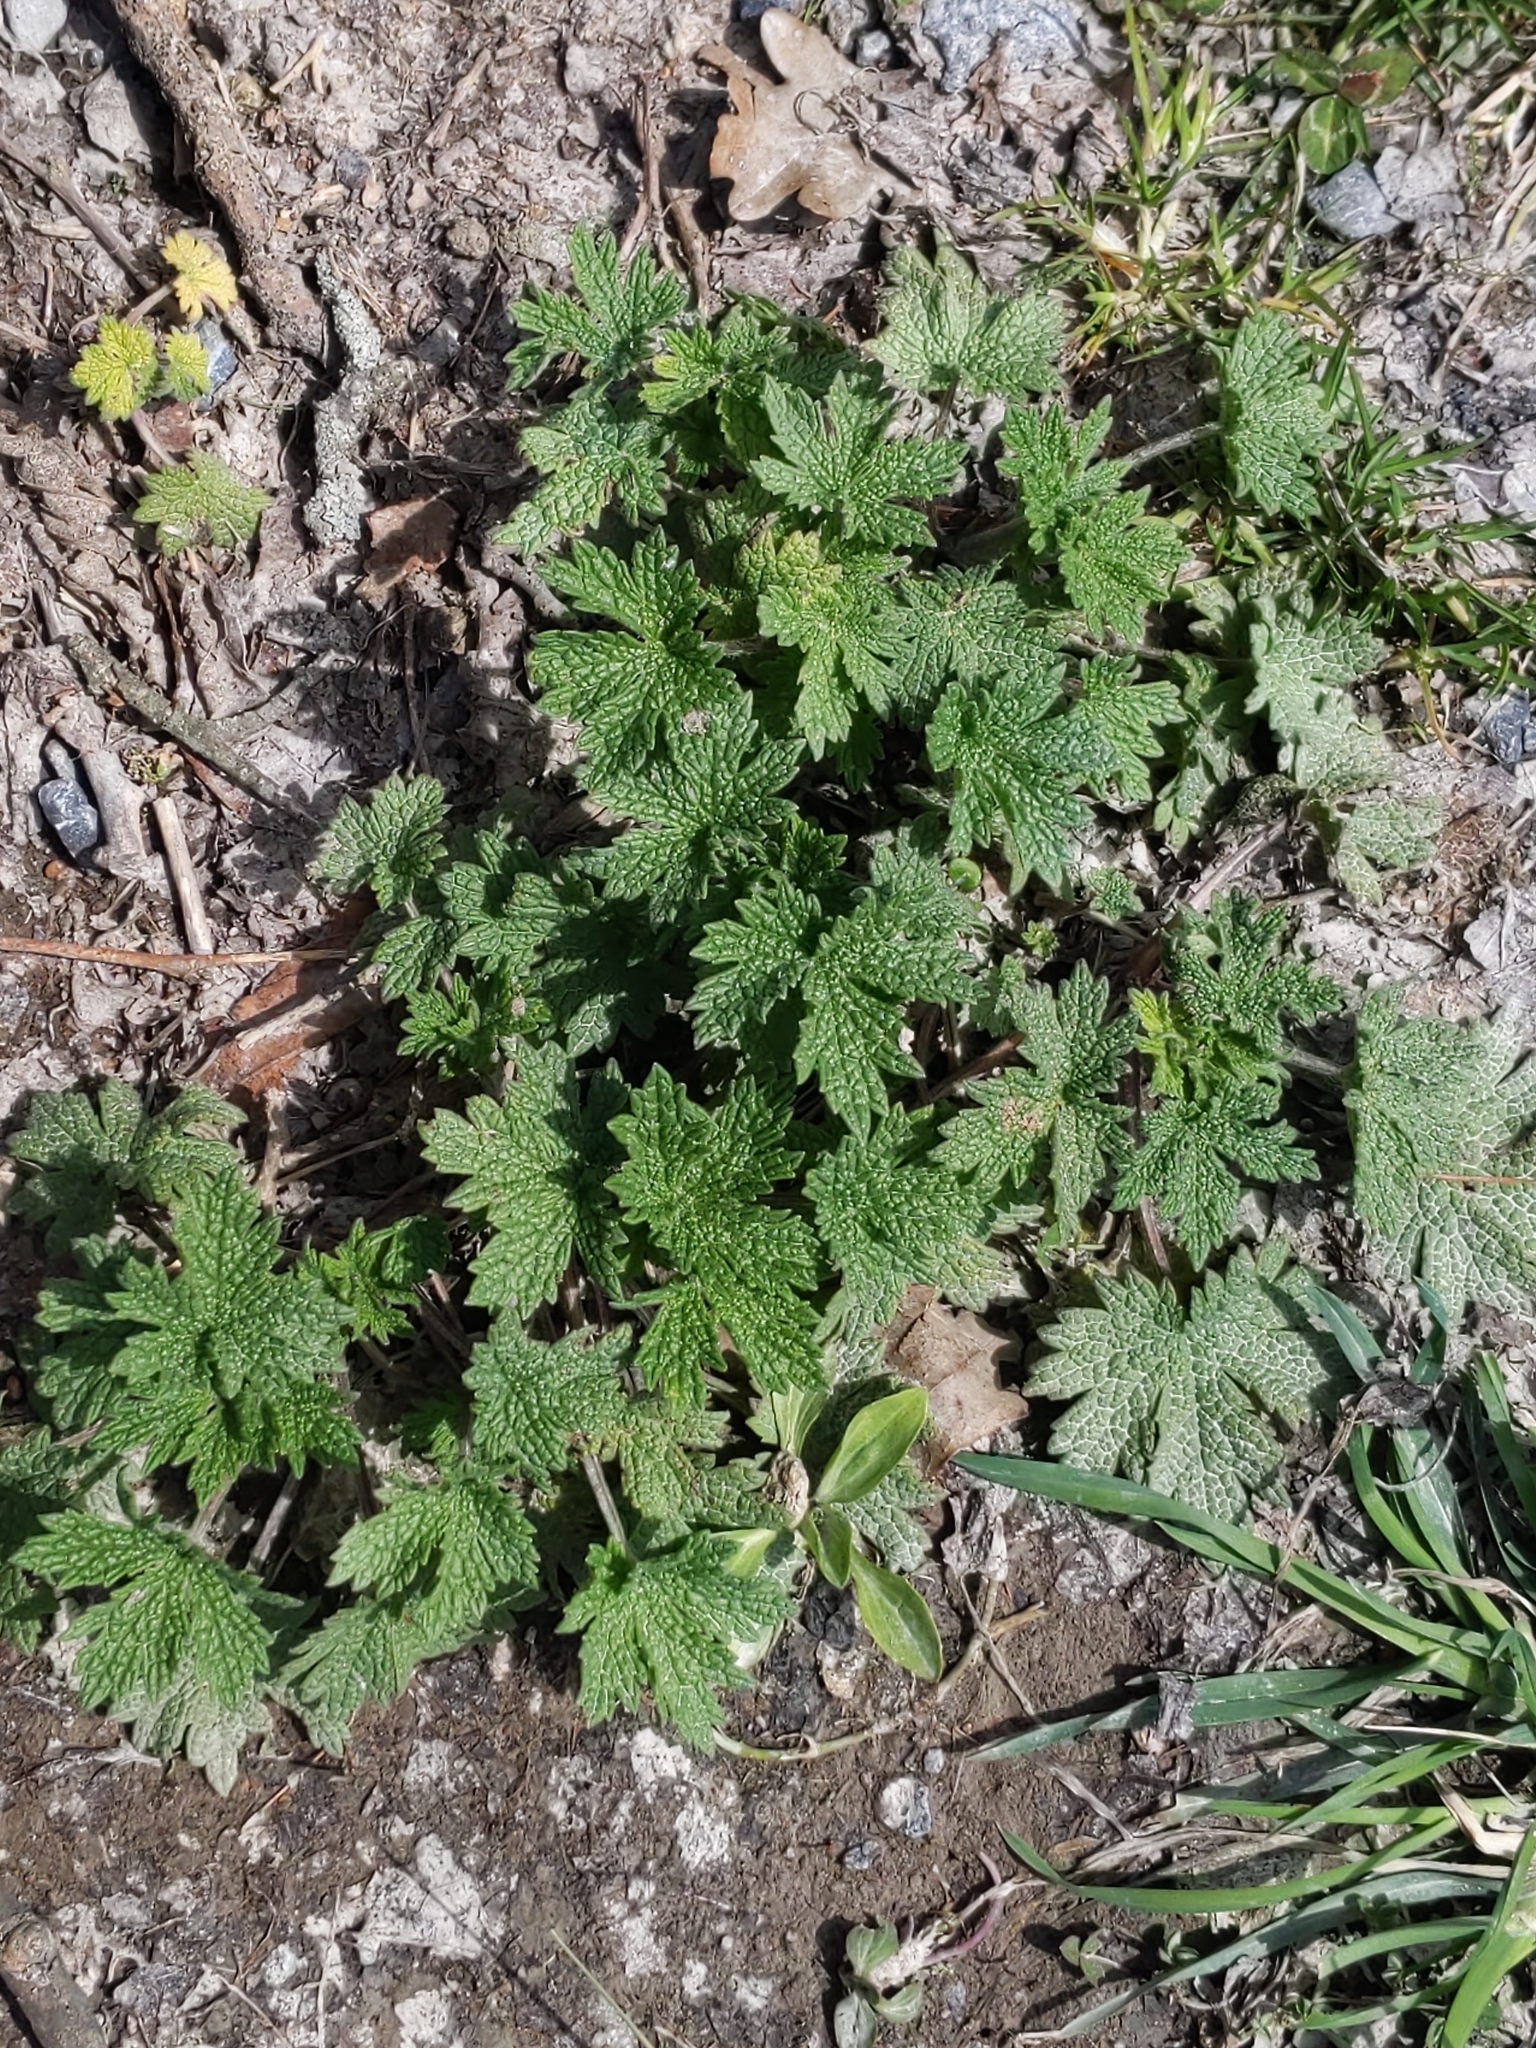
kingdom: Plantae
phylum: Tracheophyta
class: Magnoliopsida
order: Lamiales
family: Lamiaceae
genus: Leonurus
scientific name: Leonurus cardiaca
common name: Motherwort
